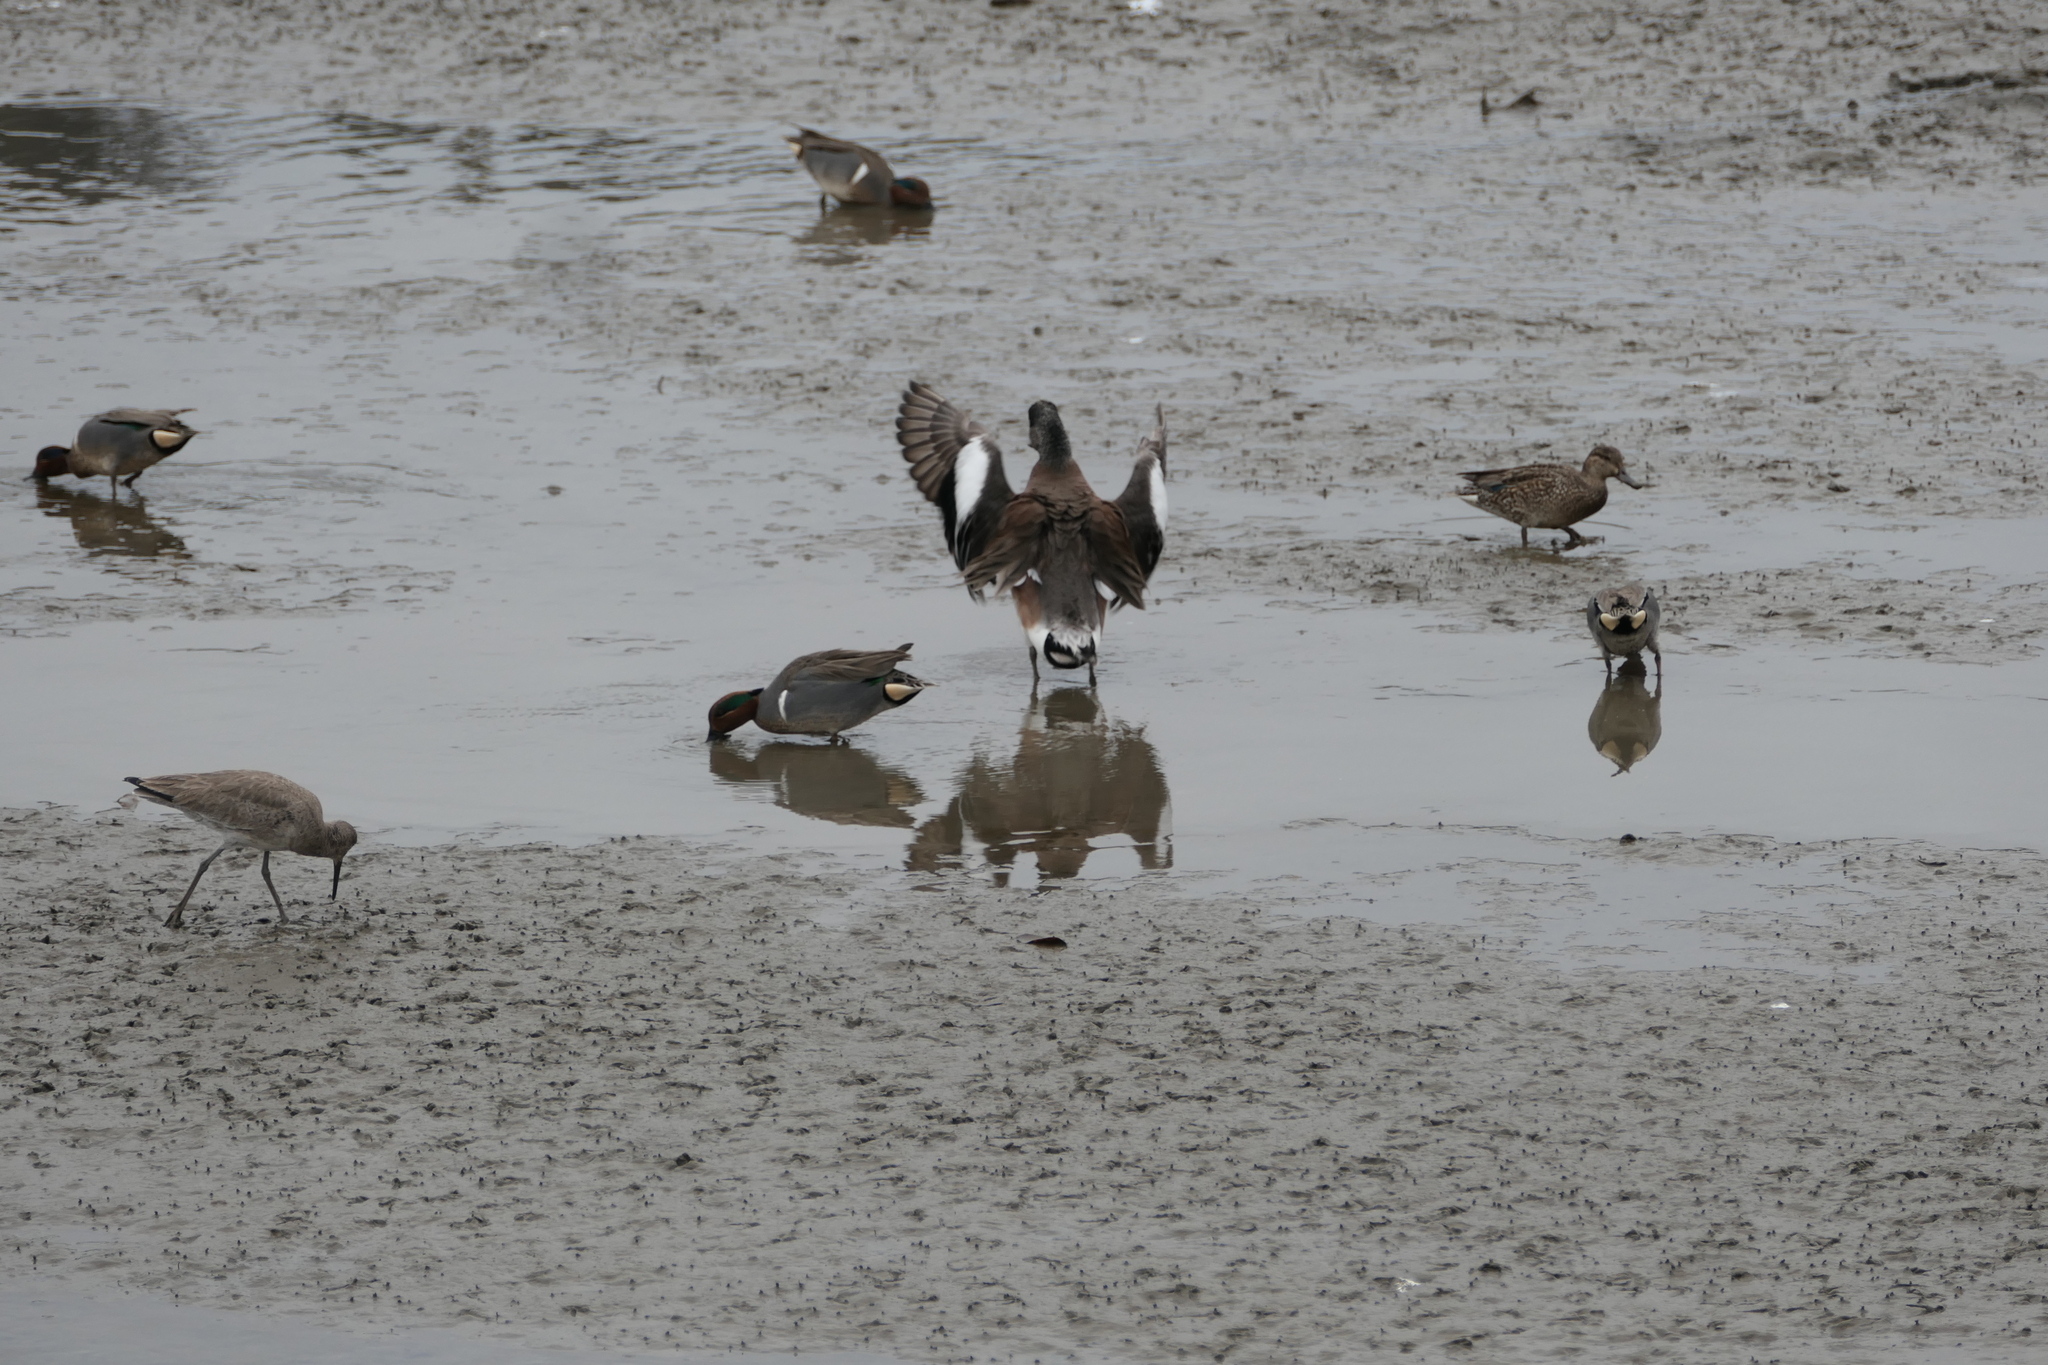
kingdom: Animalia
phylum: Chordata
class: Aves
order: Anseriformes
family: Anatidae
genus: Anas
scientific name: Anas crecca
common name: Eurasian teal
